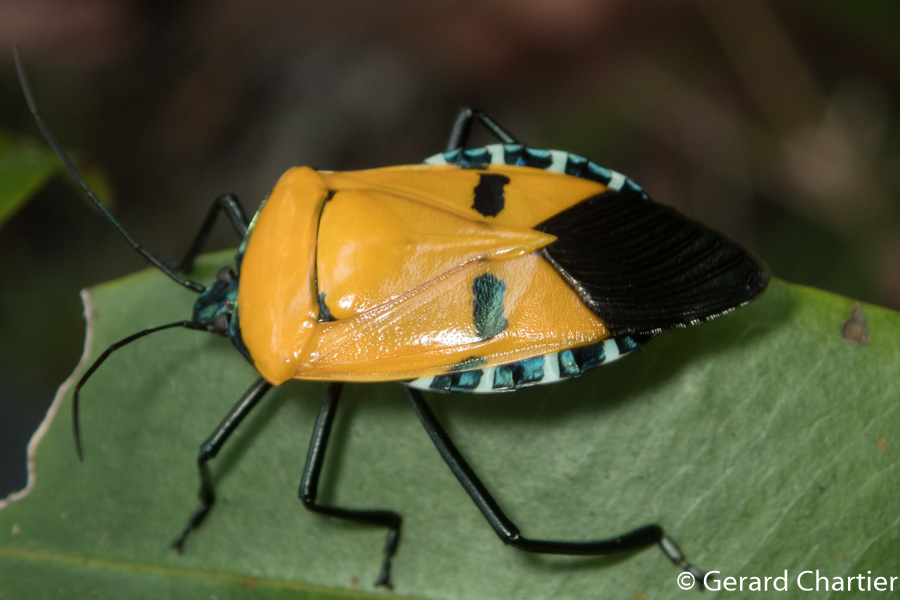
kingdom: Animalia
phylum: Arthropoda
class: Insecta
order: Hemiptera
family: Pentatomidae
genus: Catacanthus
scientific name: Catacanthus incarnatus
